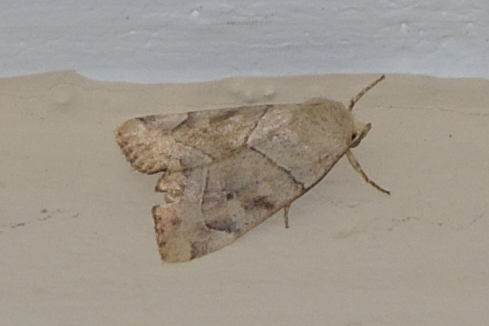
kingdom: Animalia
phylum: Arthropoda
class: Insecta
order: Lepidoptera
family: Noctuidae
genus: Cosmia
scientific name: Cosmia trapezina
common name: Dun-bar
